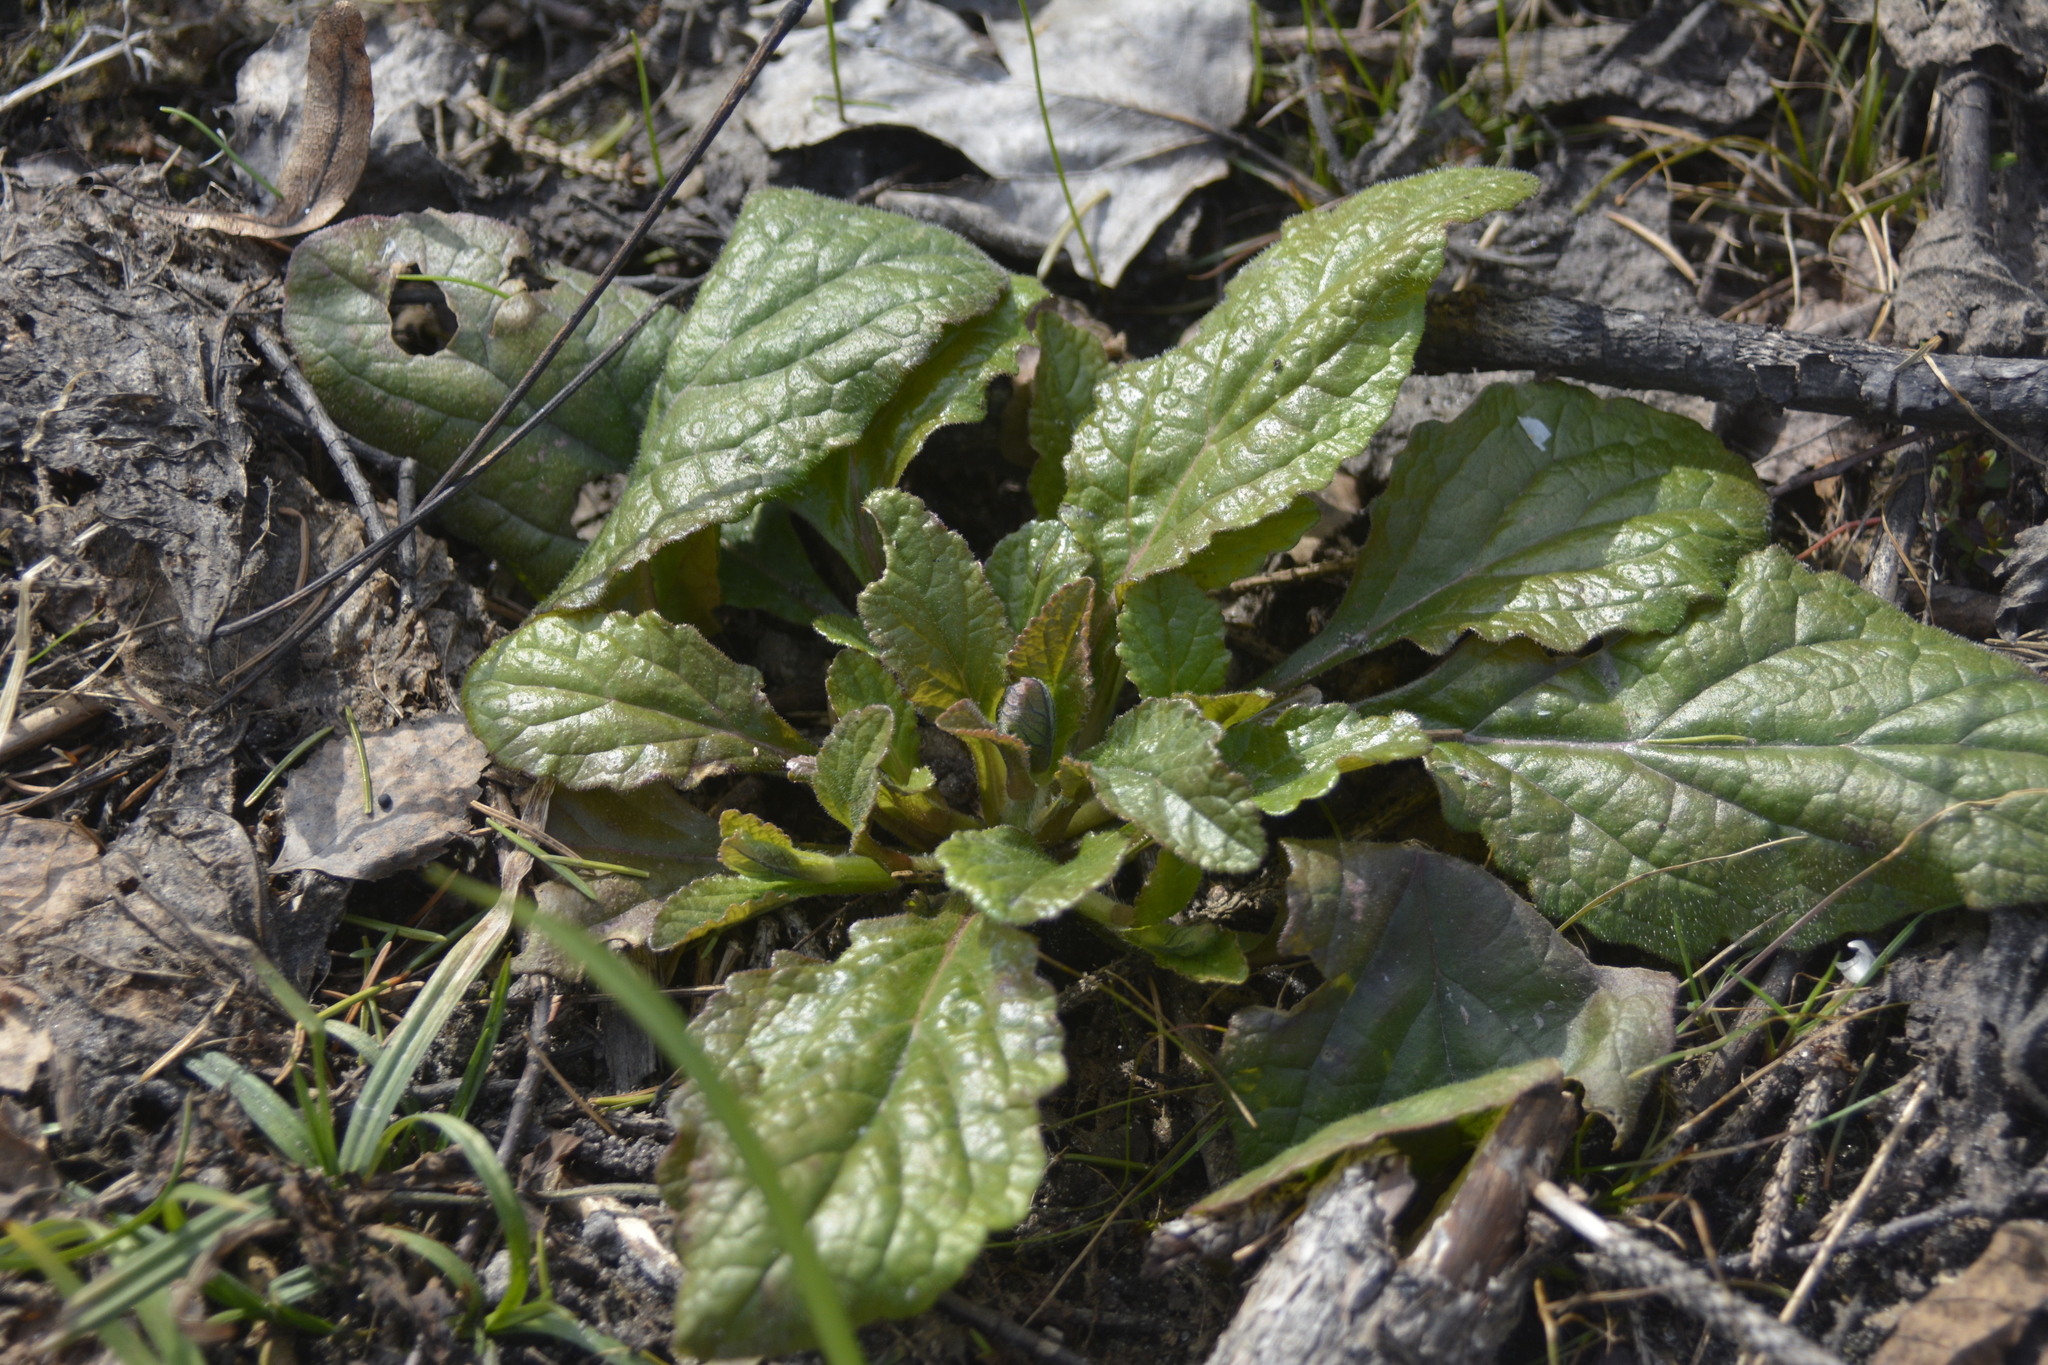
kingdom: Plantae
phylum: Tracheophyta
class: Magnoliopsida
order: Lamiales
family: Lamiaceae
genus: Ajuga
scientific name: Ajuga reptans
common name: Bugle
